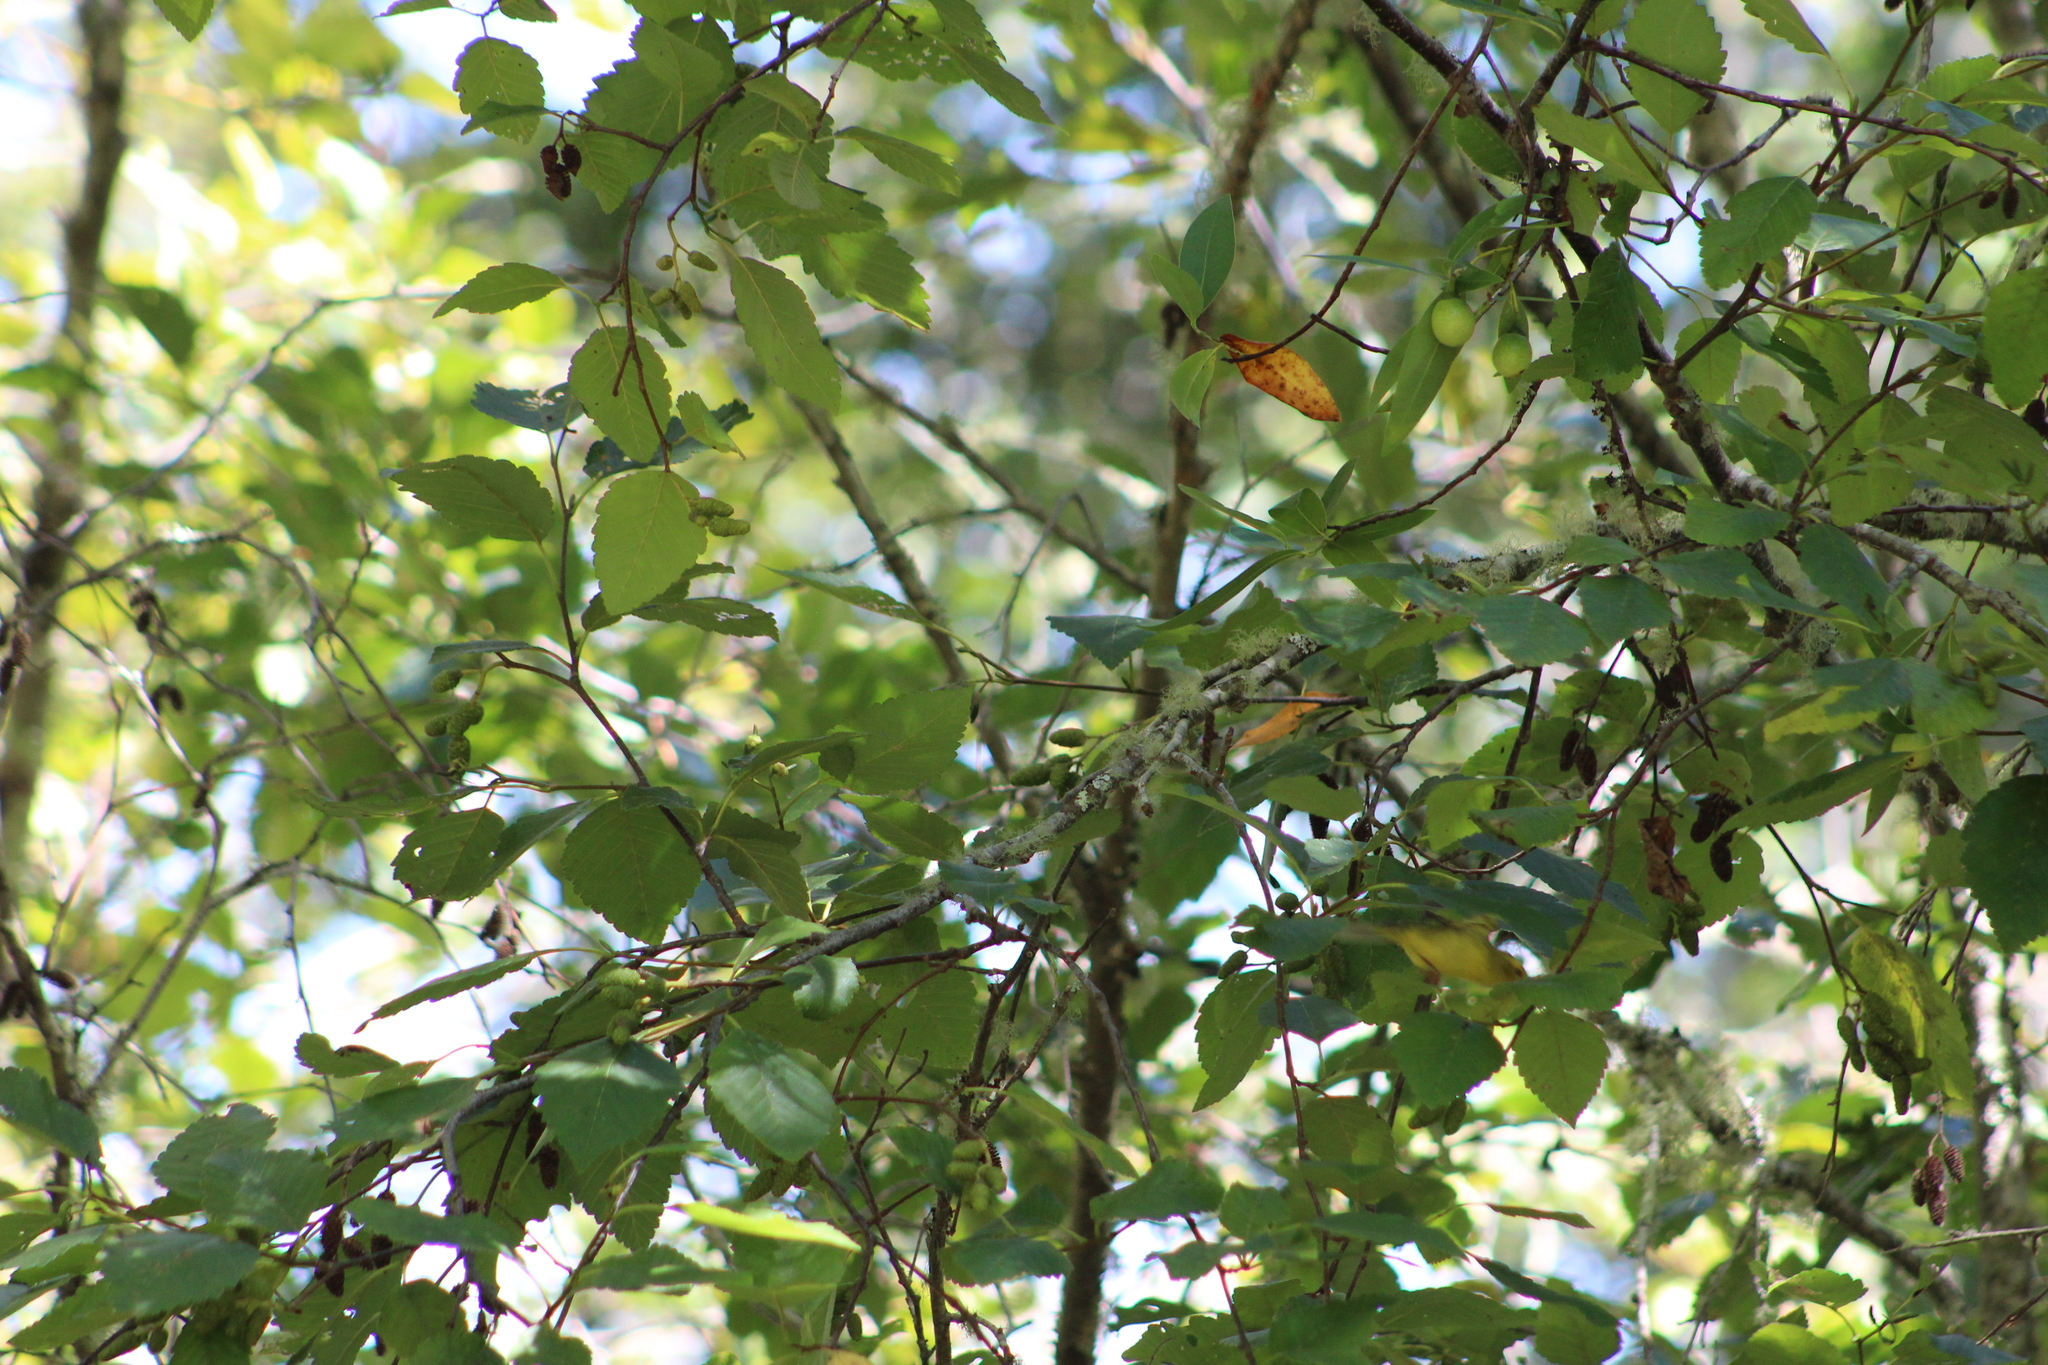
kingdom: Animalia
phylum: Chordata
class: Aves
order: Passeriformes
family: Parulidae
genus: Cardellina
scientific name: Cardellina pusilla
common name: Wilson's warbler
